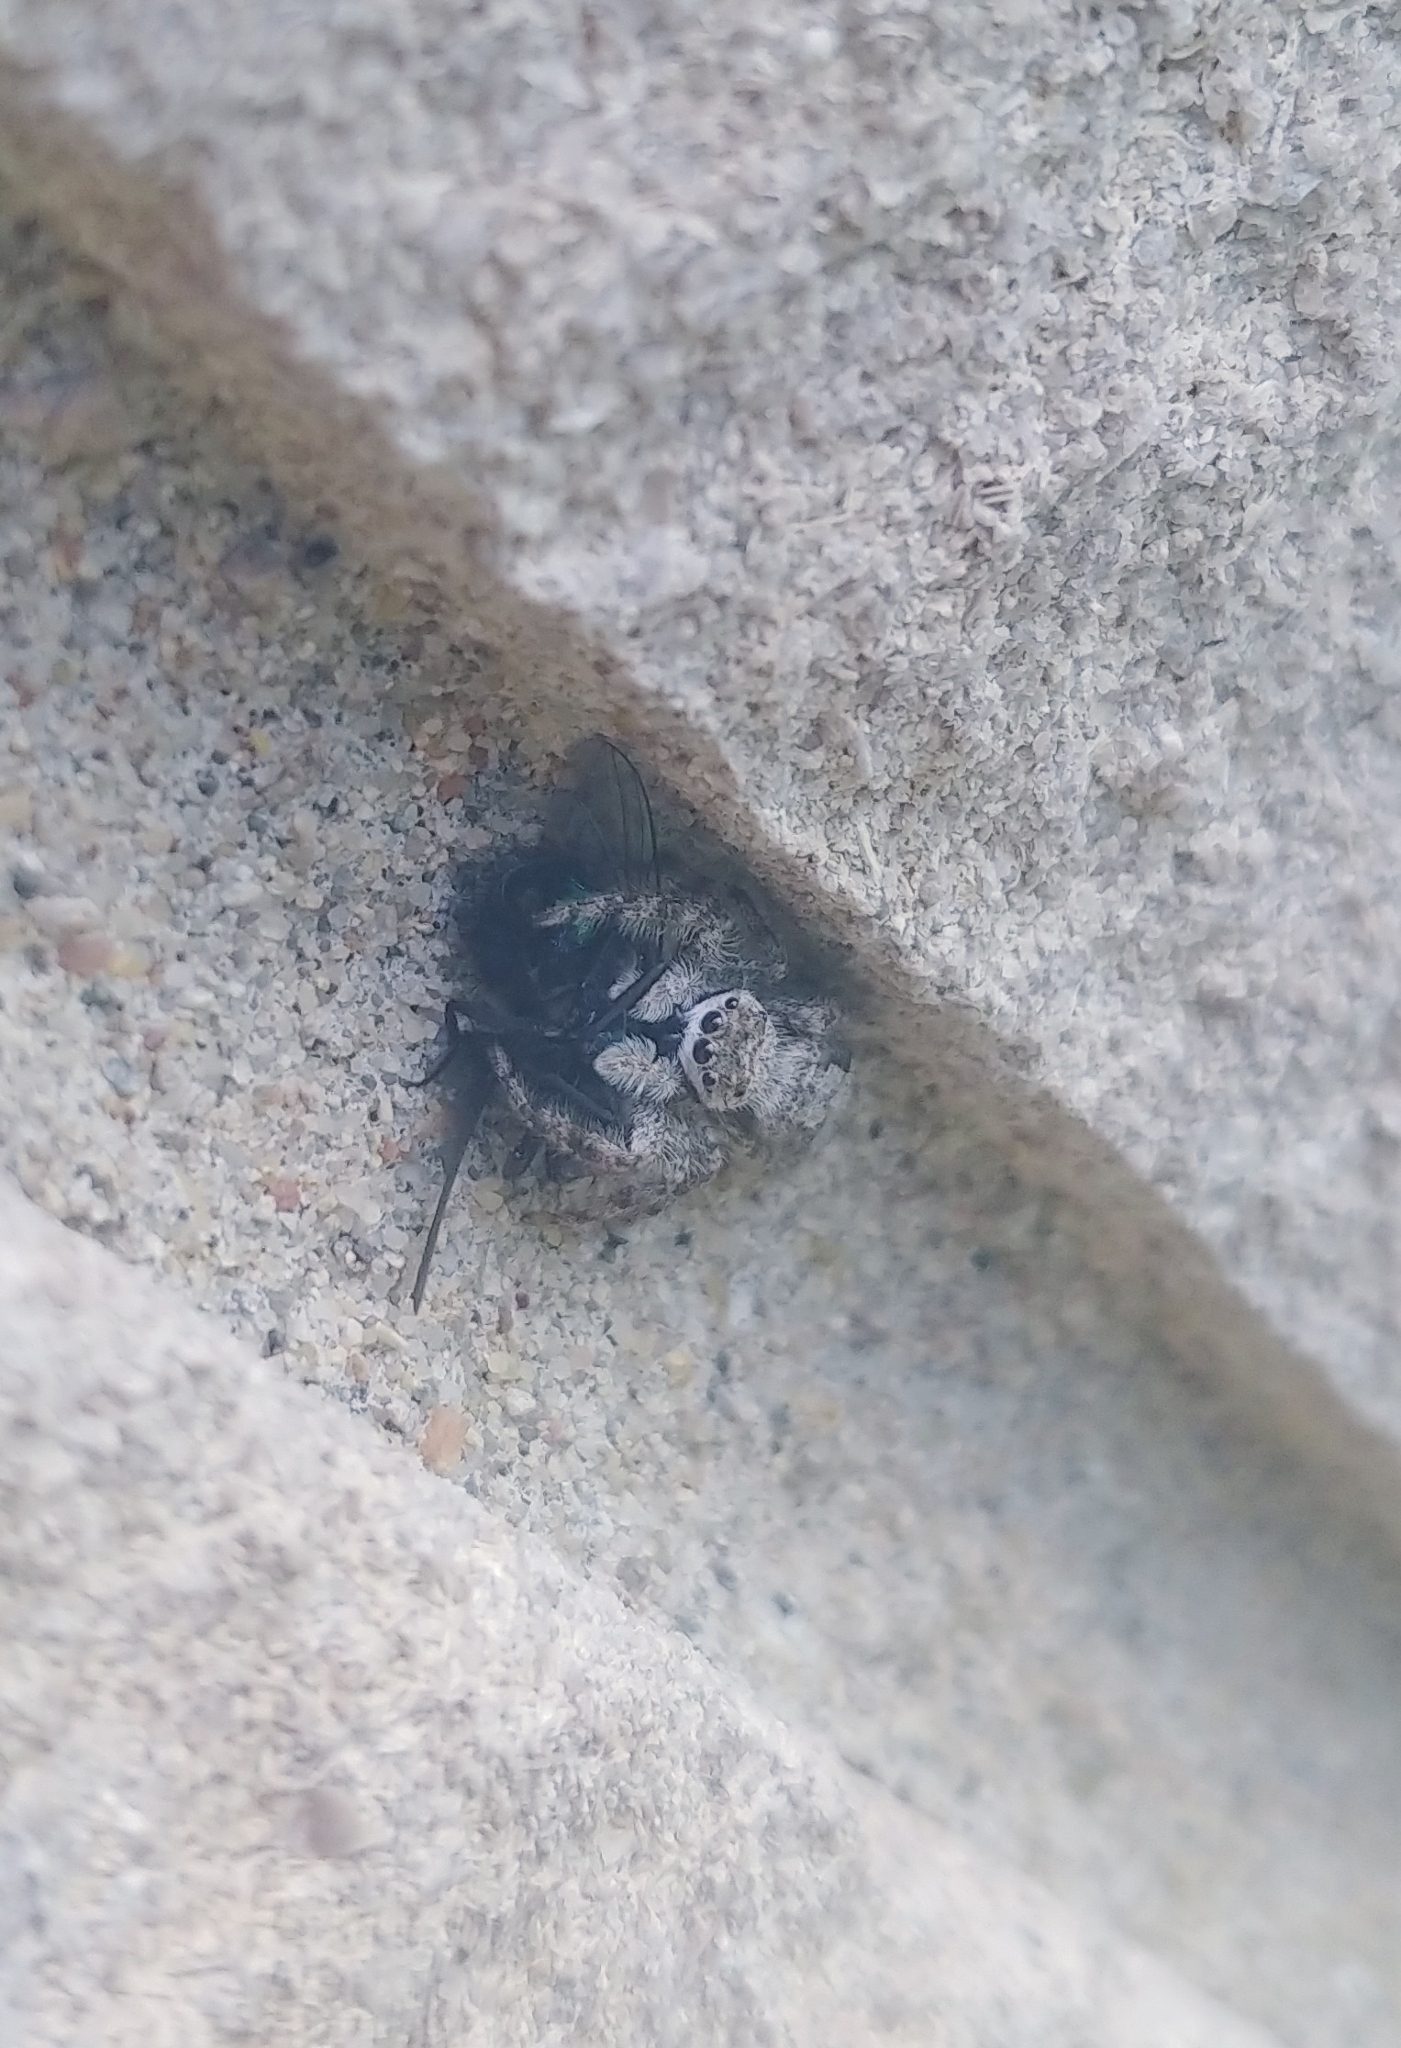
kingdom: Animalia
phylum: Arthropoda
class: Arachnida
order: Araneae
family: Salticidae
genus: Platycryptus
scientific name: Platycryptus undatus
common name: Tan jumping spider
